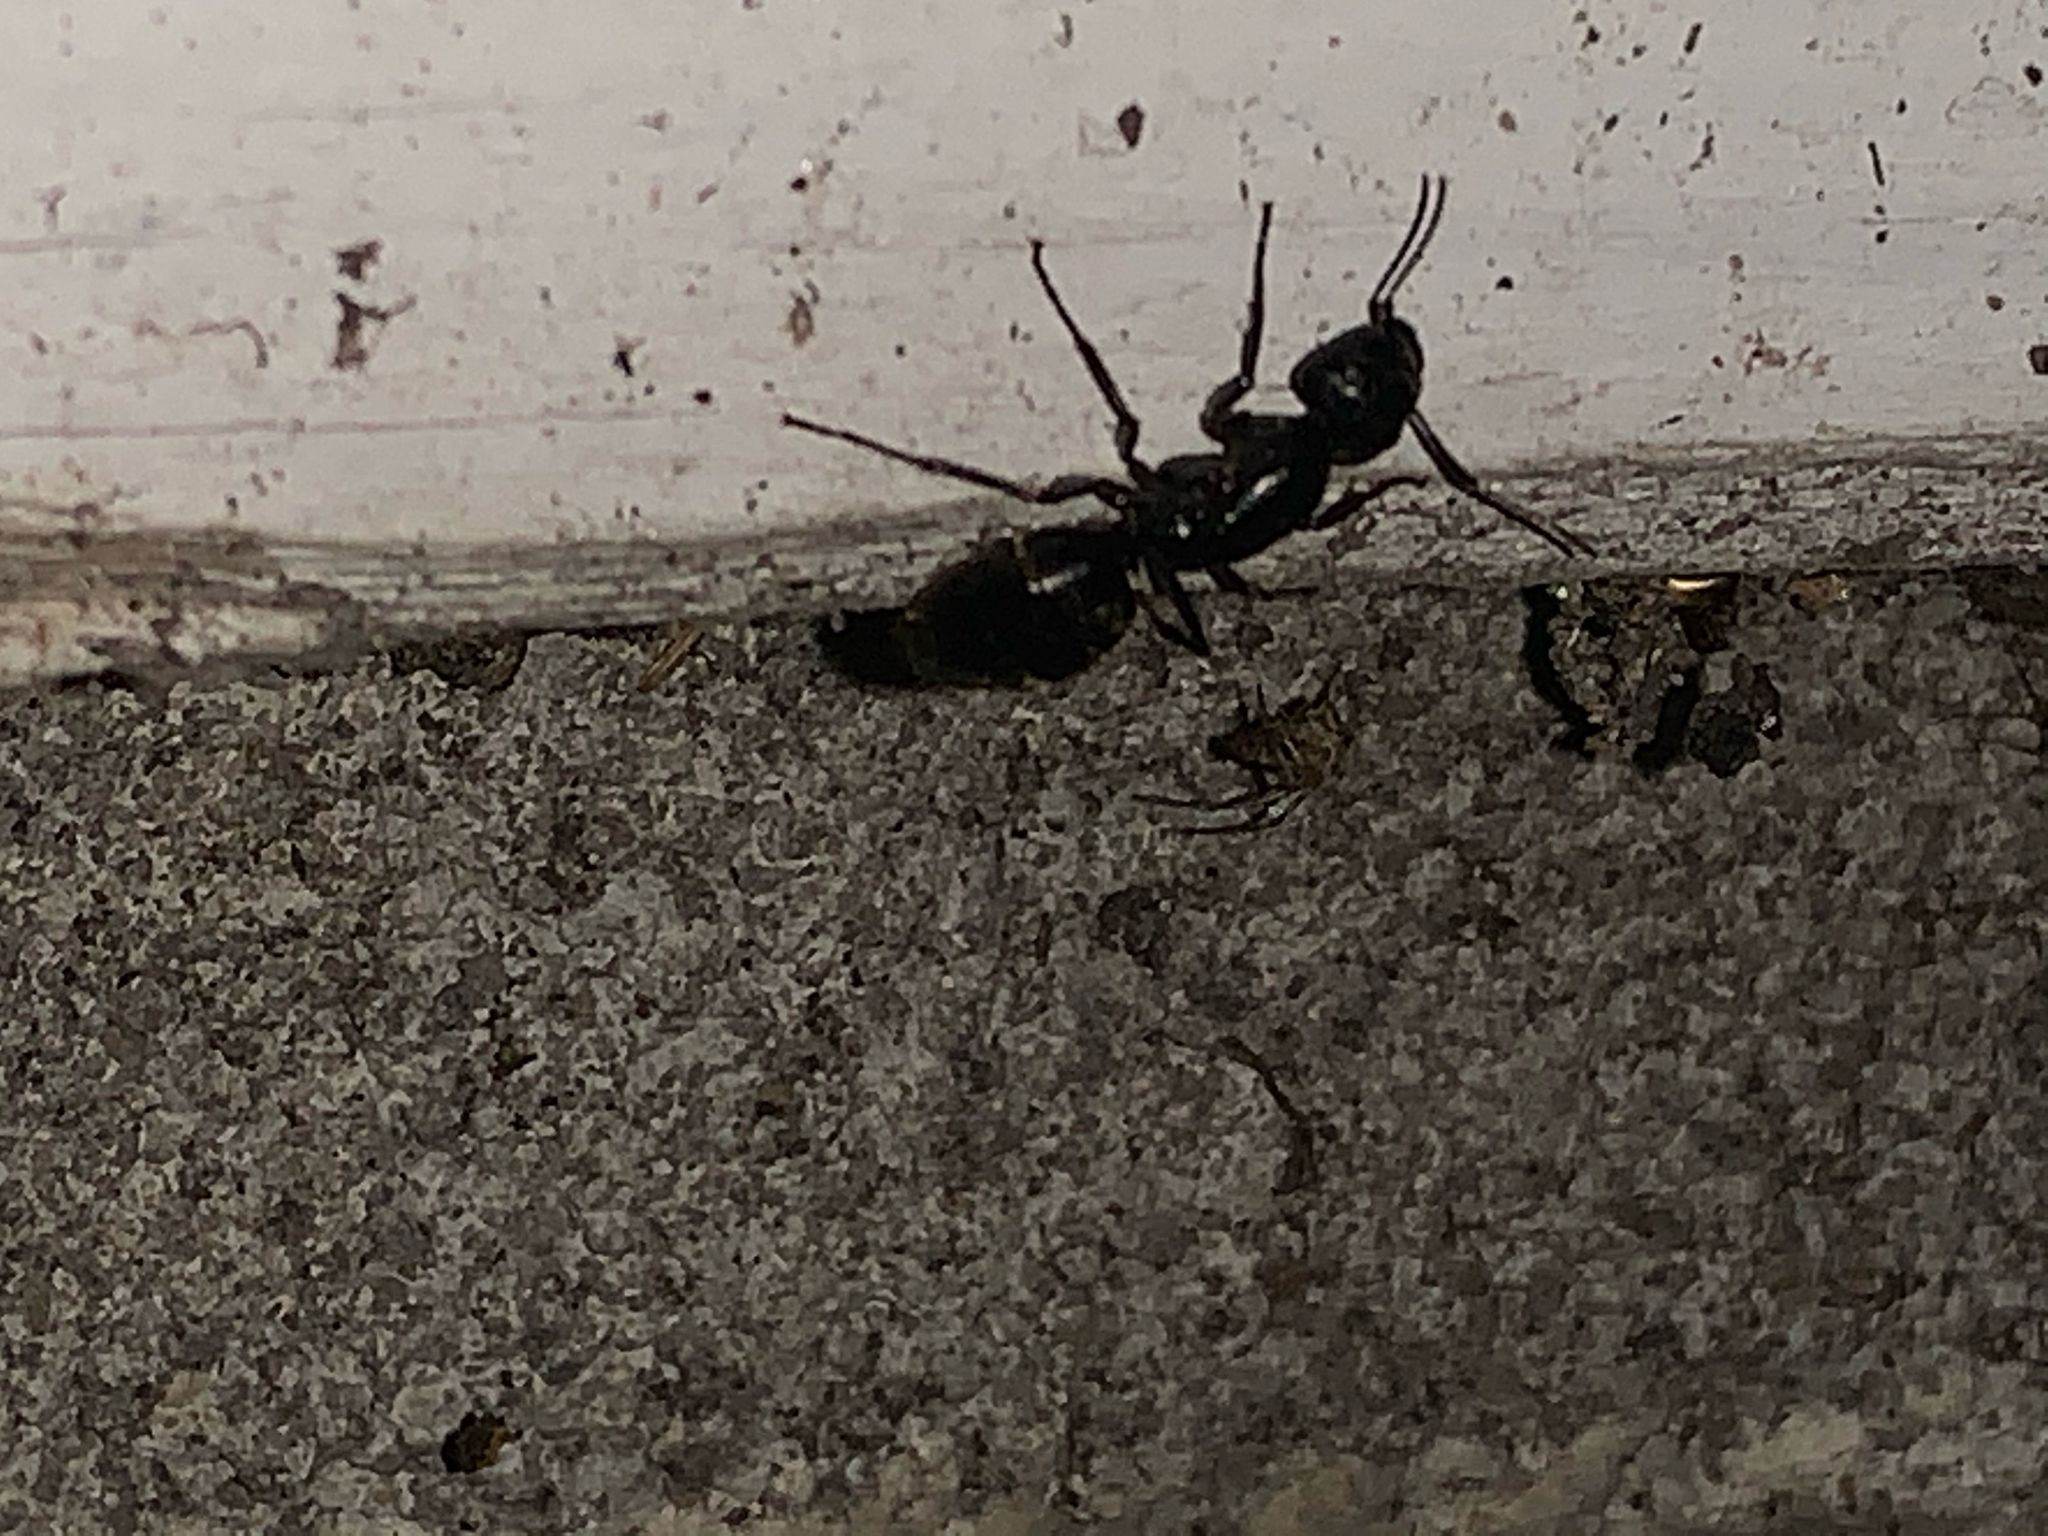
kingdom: Animalia
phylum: Arthropoda
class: Insecta
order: Hymenoptera
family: Formicidae
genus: Camponotus
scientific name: Camponotus pennsylvanicus
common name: Black carpenter ant
